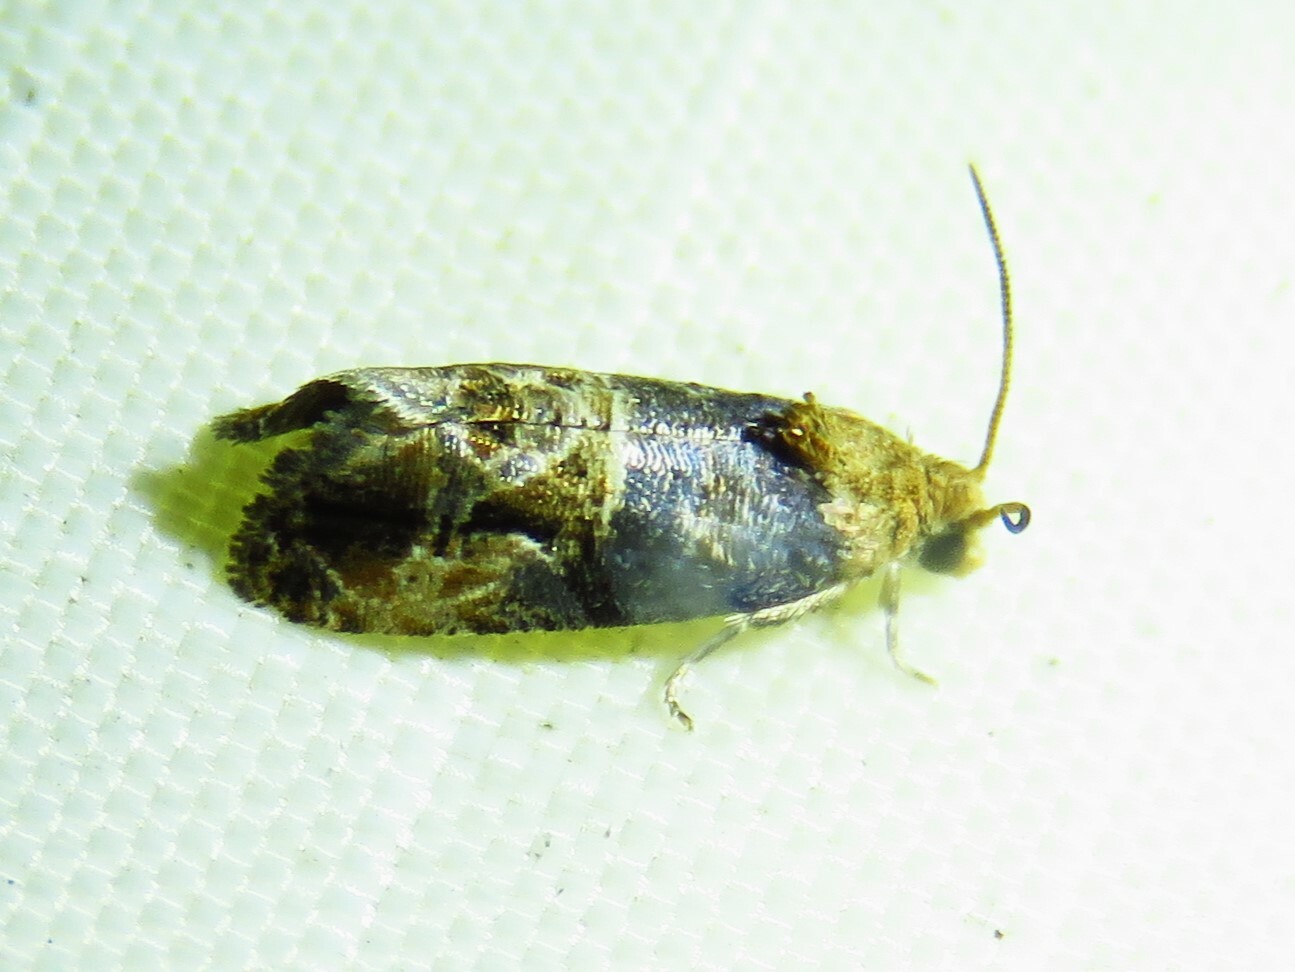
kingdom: Animalia
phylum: Arthropoda
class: Insecta
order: Lepidoptera
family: Tortricidae
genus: Paralobesia
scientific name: Paralobesia viteana
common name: Grape berry moth
